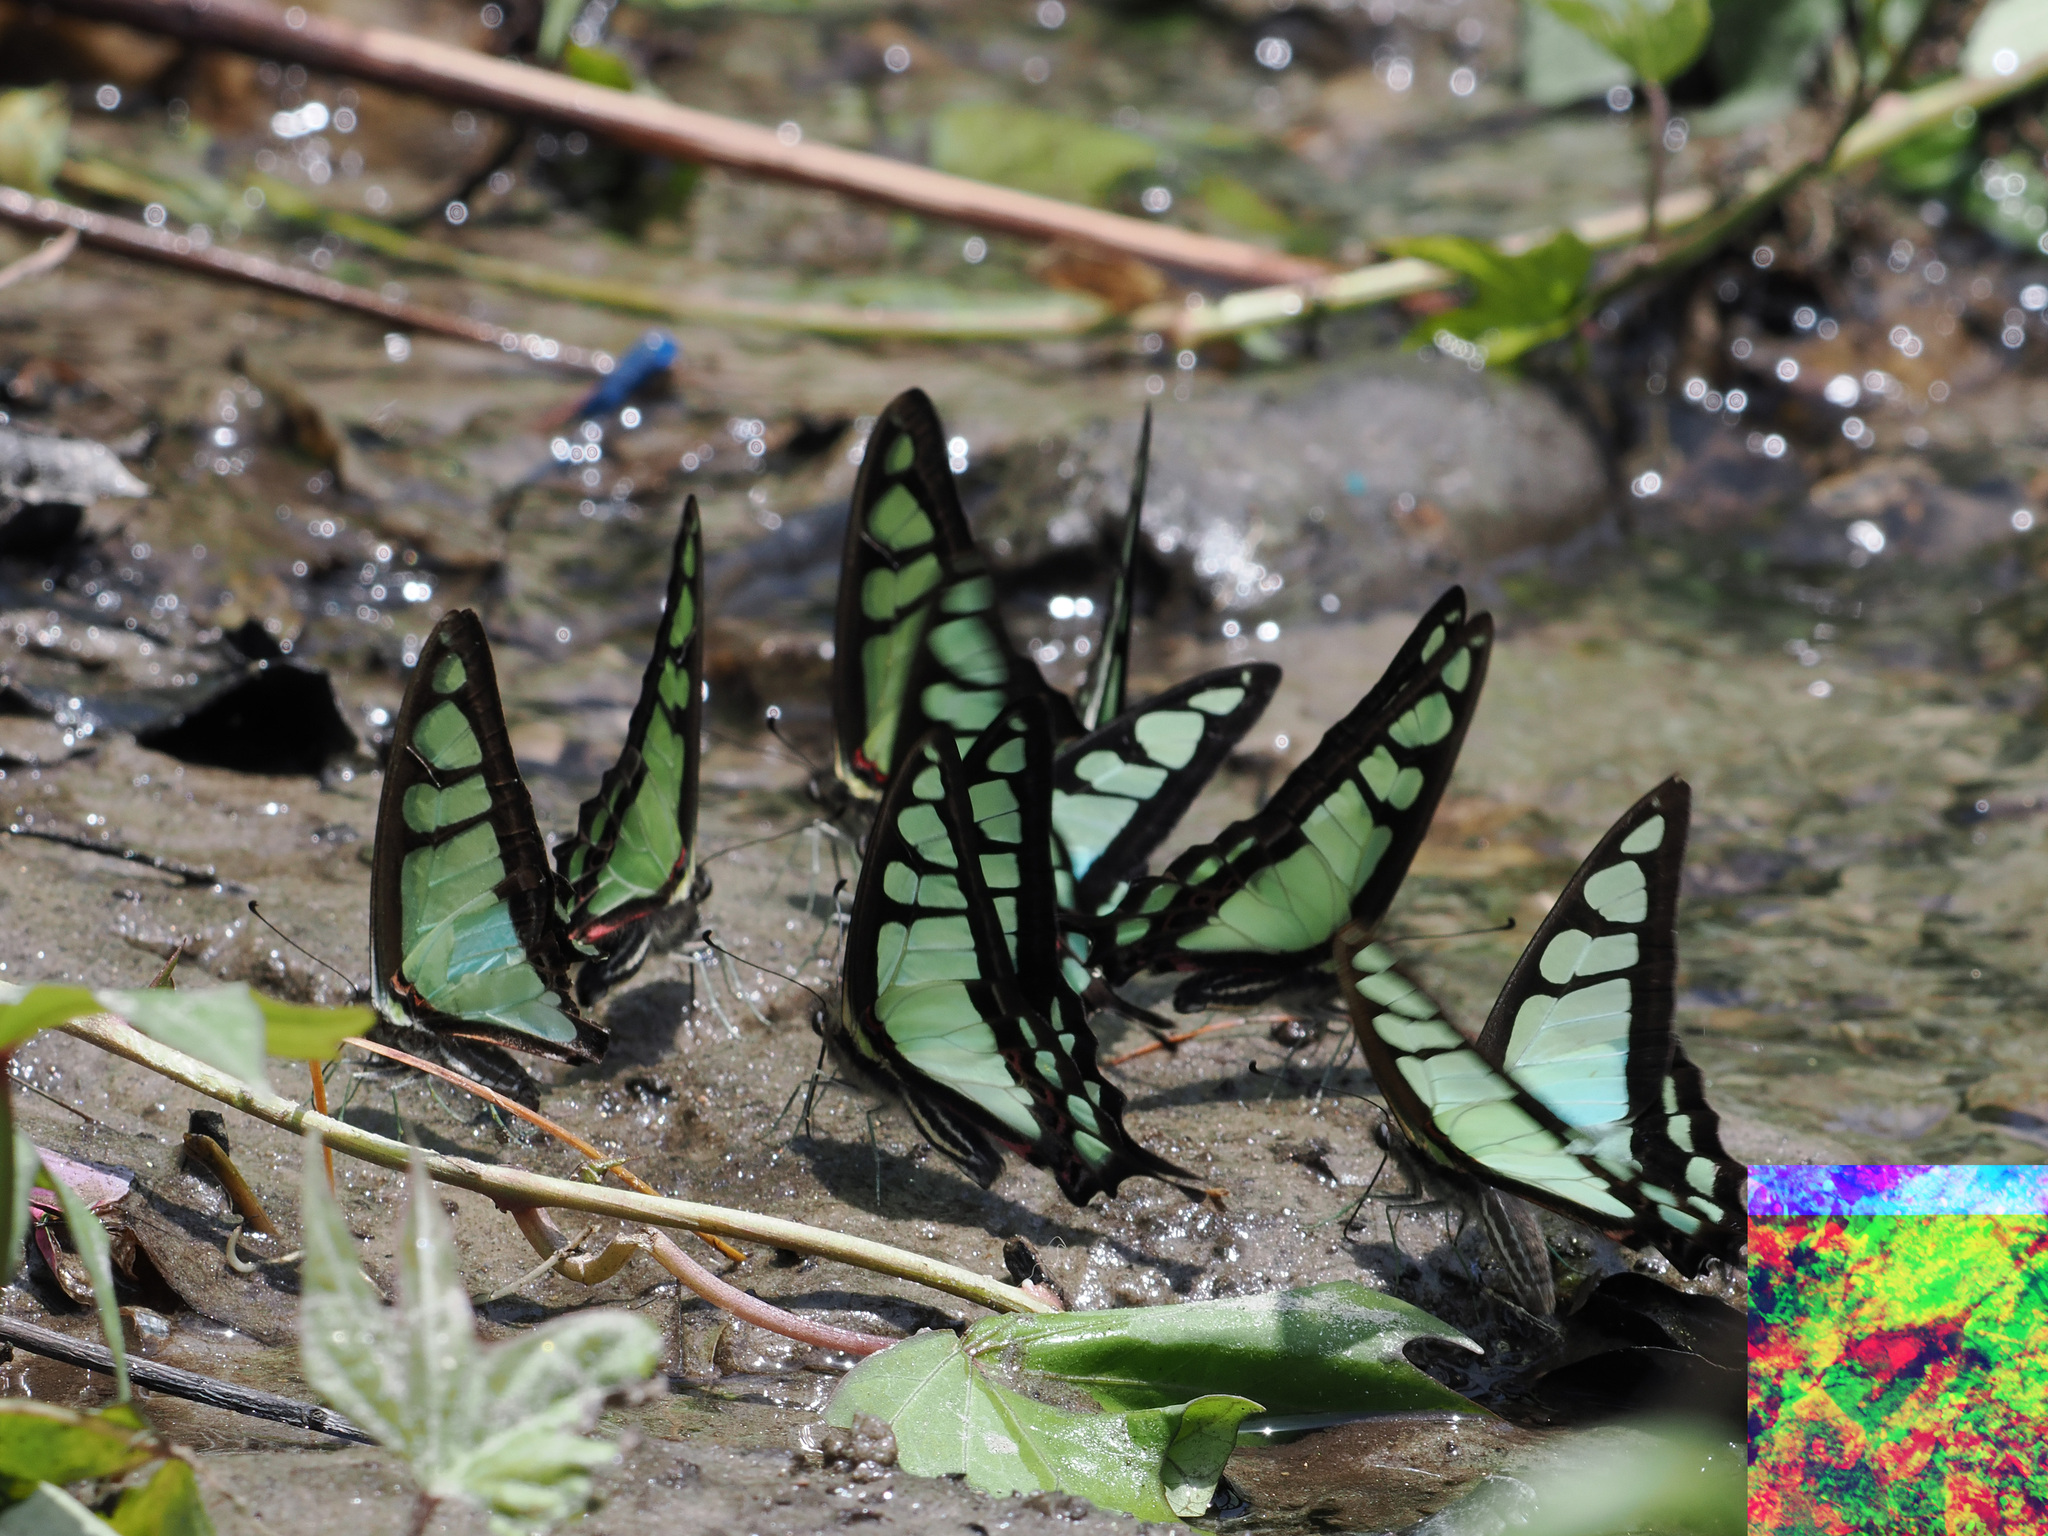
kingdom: Animalia
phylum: Arthropoda
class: Insecta
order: Lepidoptera
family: Papilionidae
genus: Graphium
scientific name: Graphium cloanthus
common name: Glassy bluebottle
